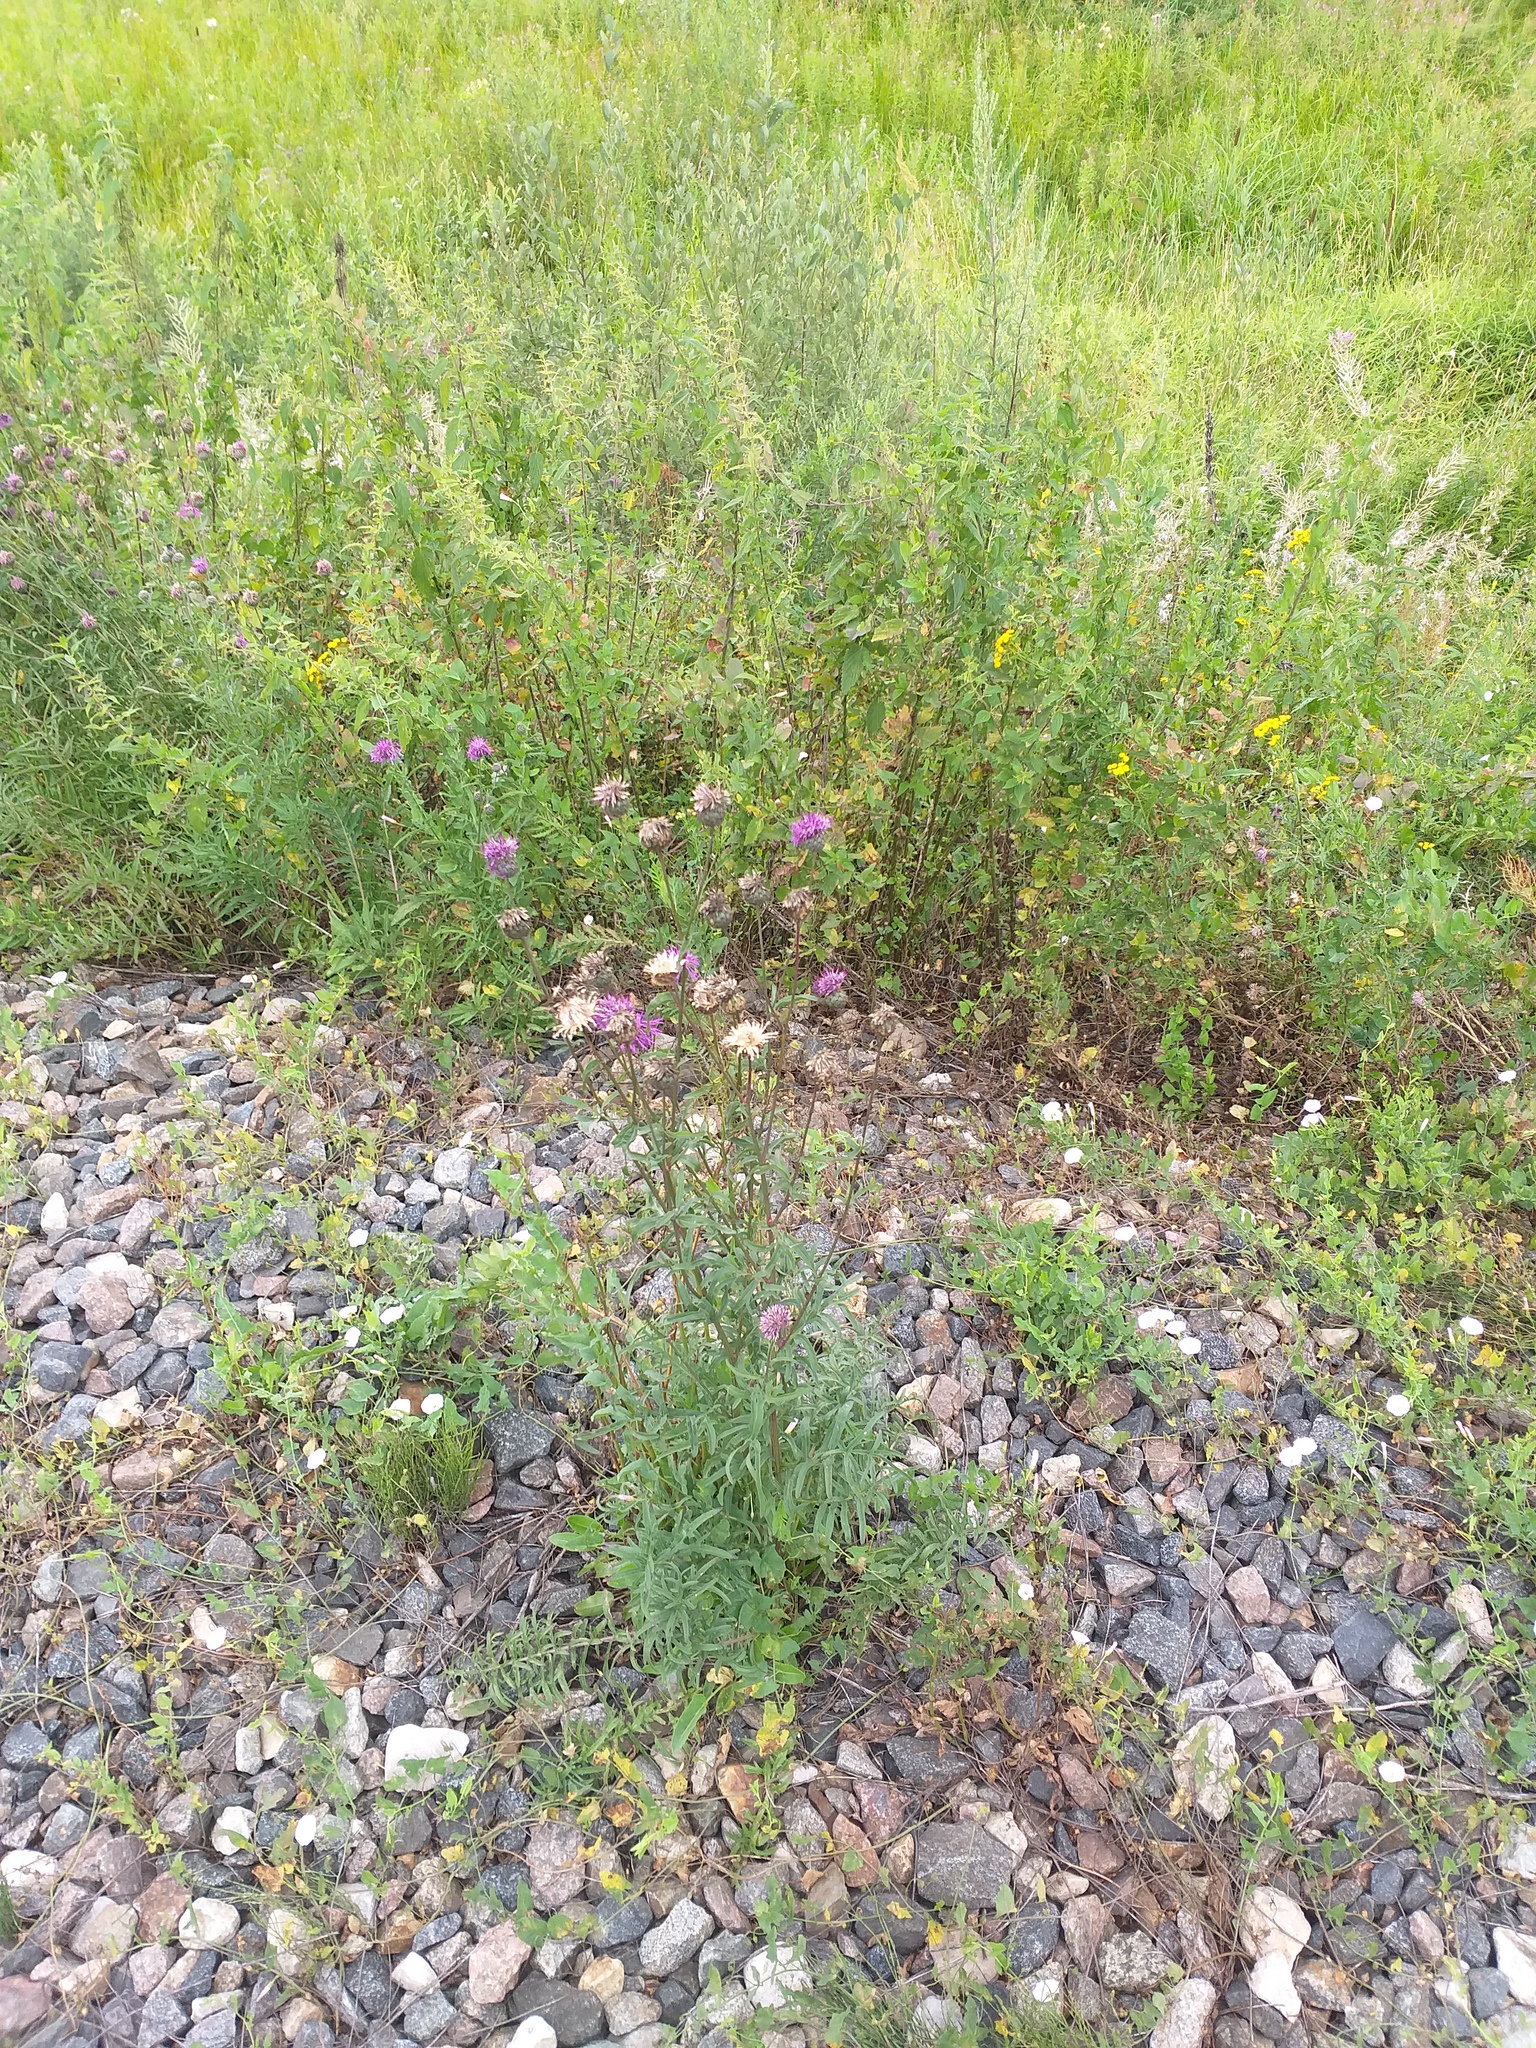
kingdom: Plantae
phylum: Tracheophyta
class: Magnoliopsida
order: Asterales
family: Asteraceae
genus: Centaurea
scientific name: Centaurea scabiosa
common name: Greater knapweed
